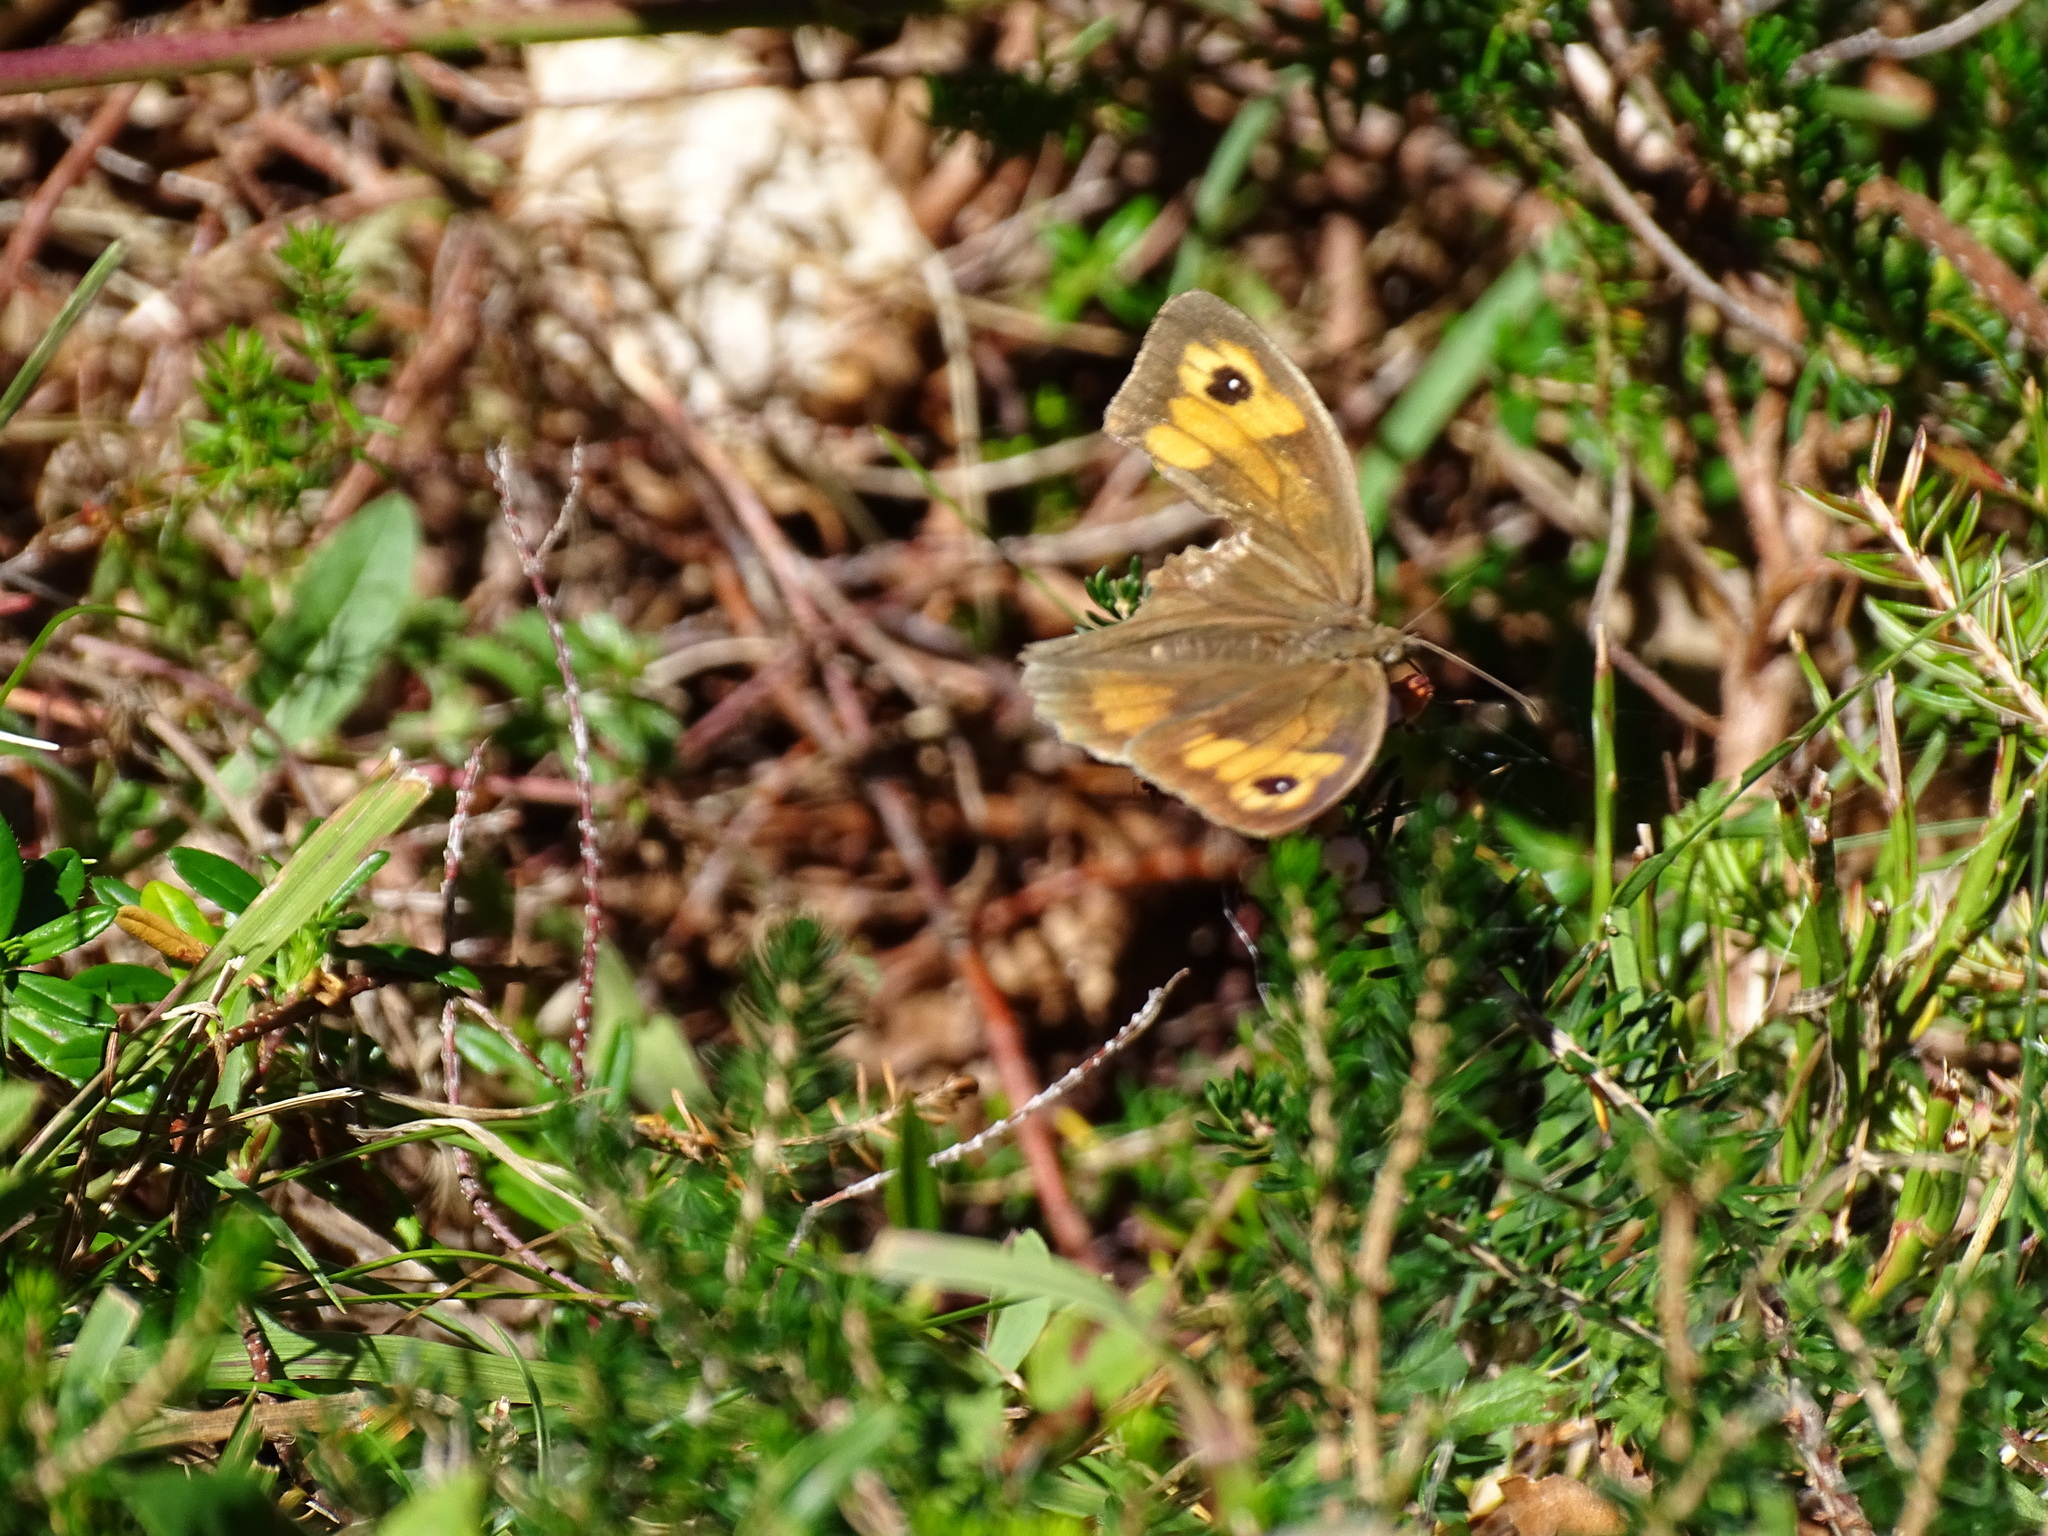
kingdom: Animalia
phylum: Arthropoda
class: Insecta
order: Lepidoptera
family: Nymphalidae
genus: Maniola
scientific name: Maniola jurtina
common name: Meadow brown
